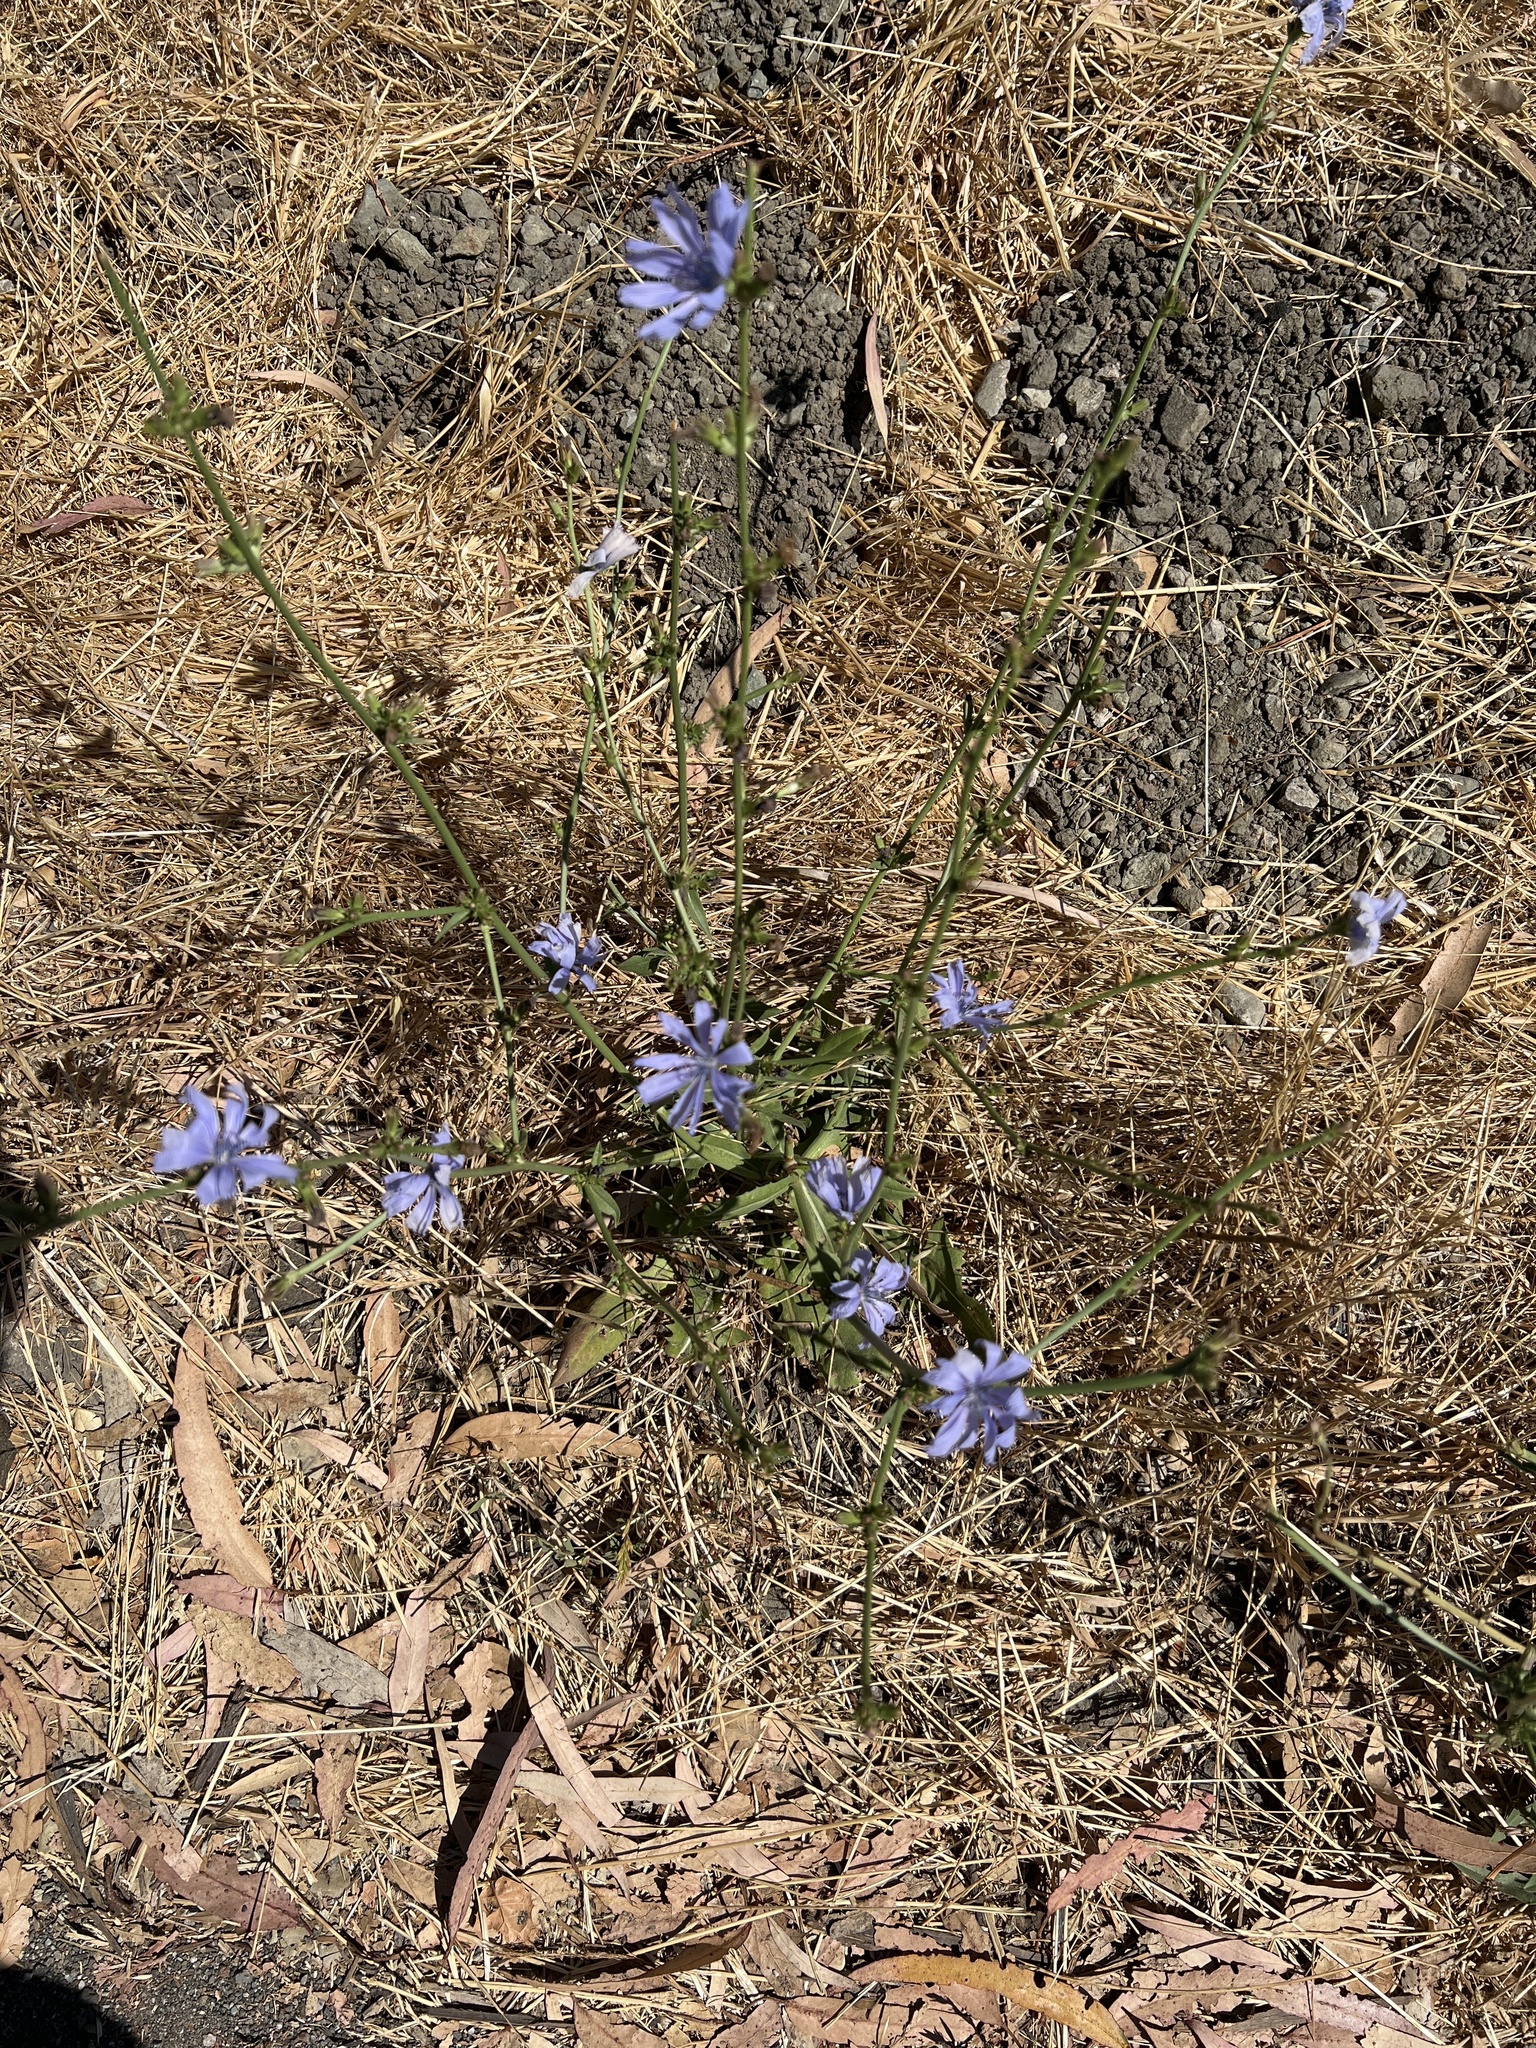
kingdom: Plantae
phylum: Tracheophyta
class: Magnoliopsida
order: Asterales
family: Asteraceae
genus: Cichorium
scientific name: Cichorium intybus
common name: Chicory
